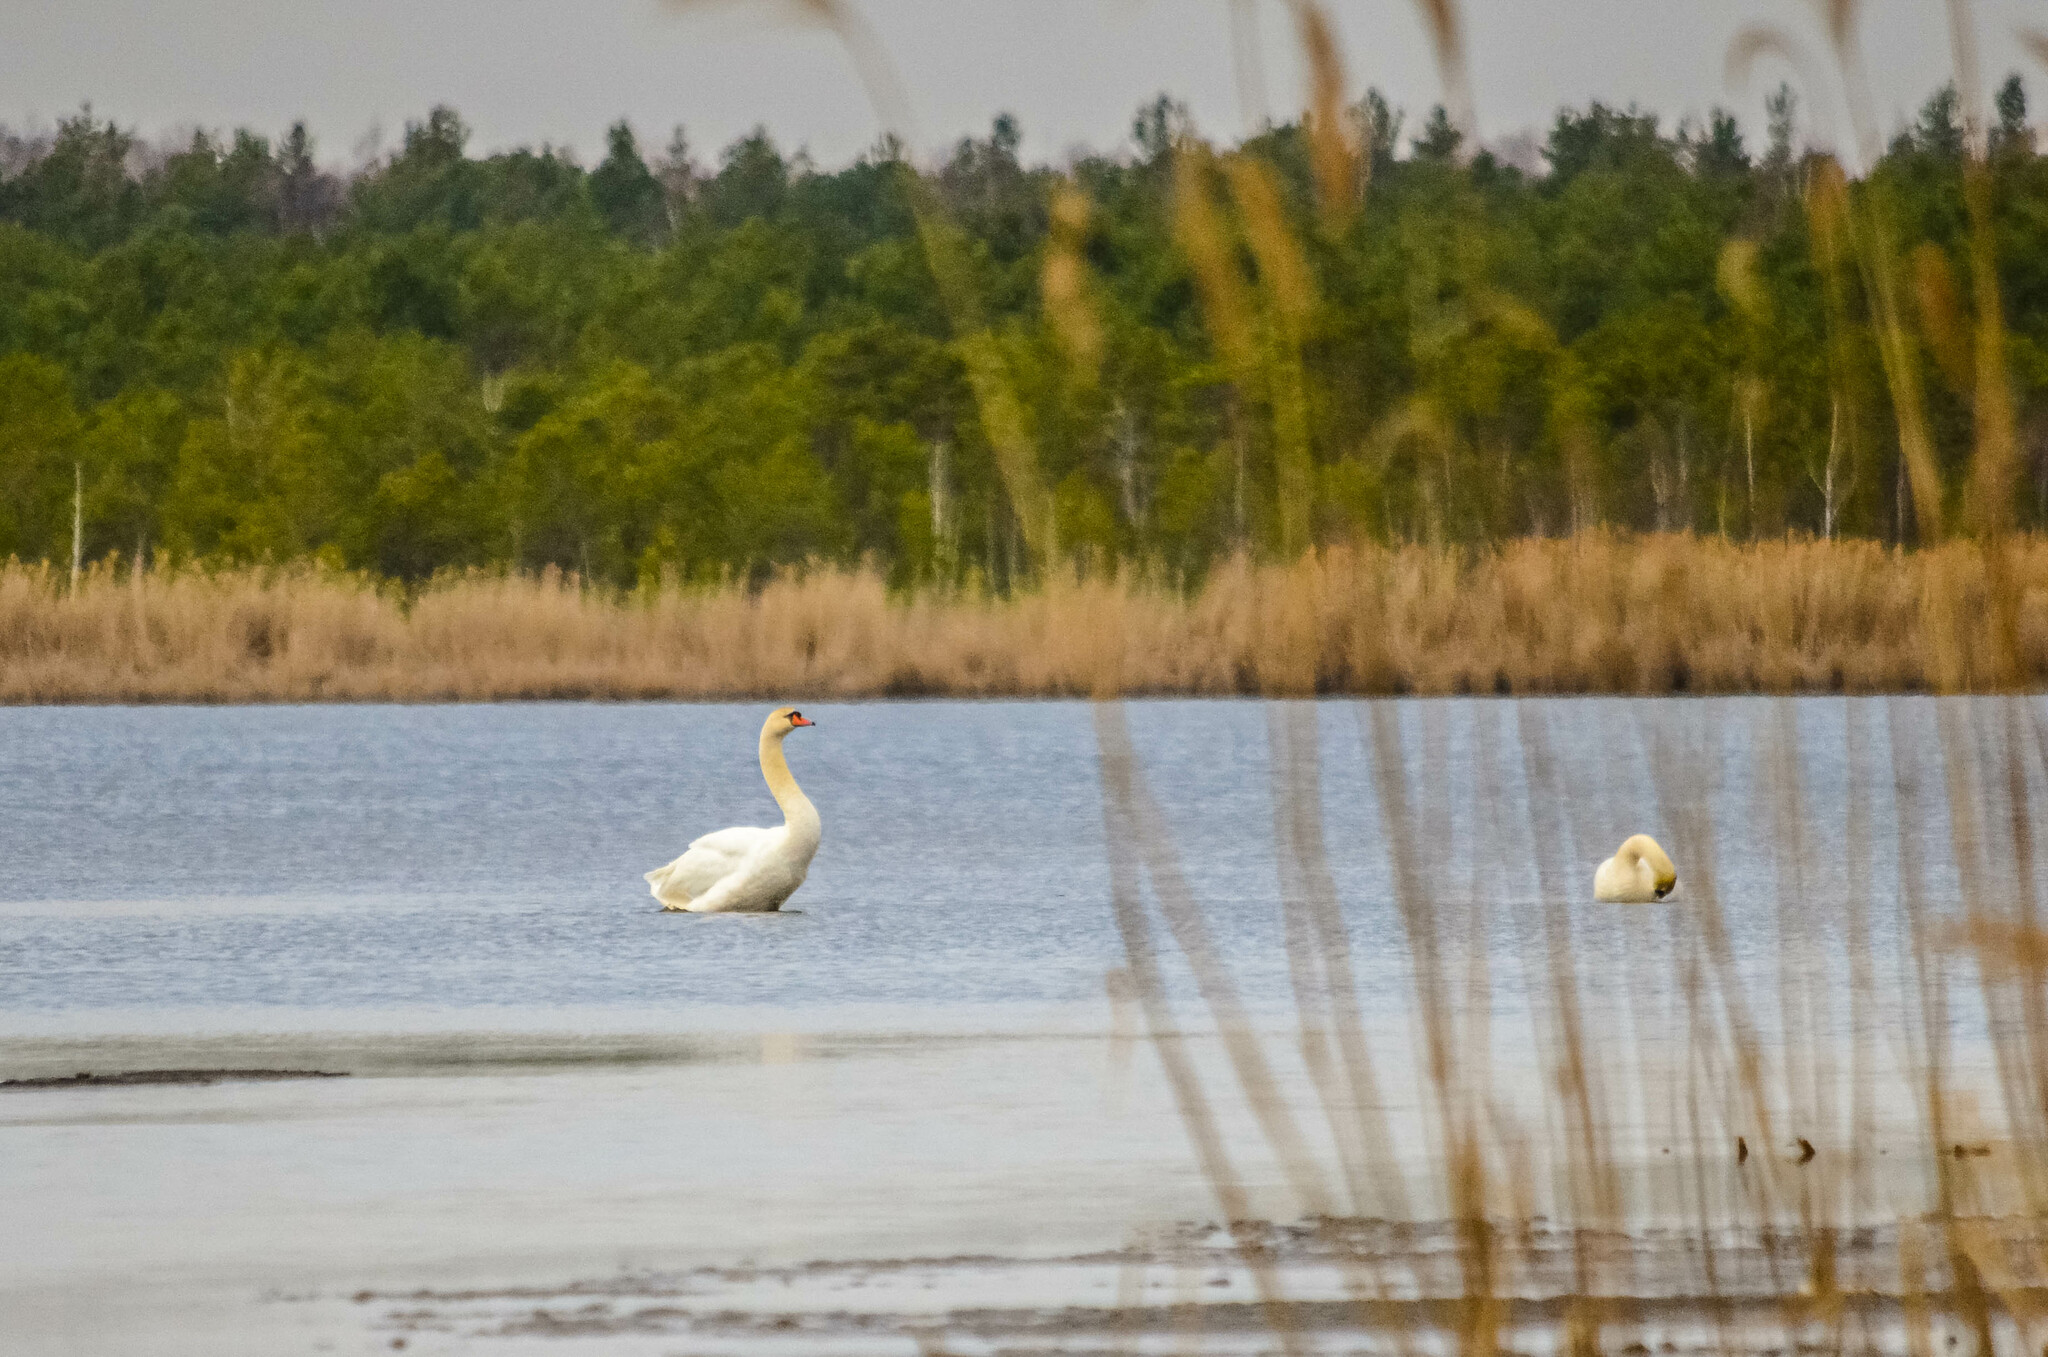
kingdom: Animalia
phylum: Chordata
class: Aves
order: Anseriformes
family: Anatidae
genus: Cygnus
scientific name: Cygnus olor
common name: Mute swan
